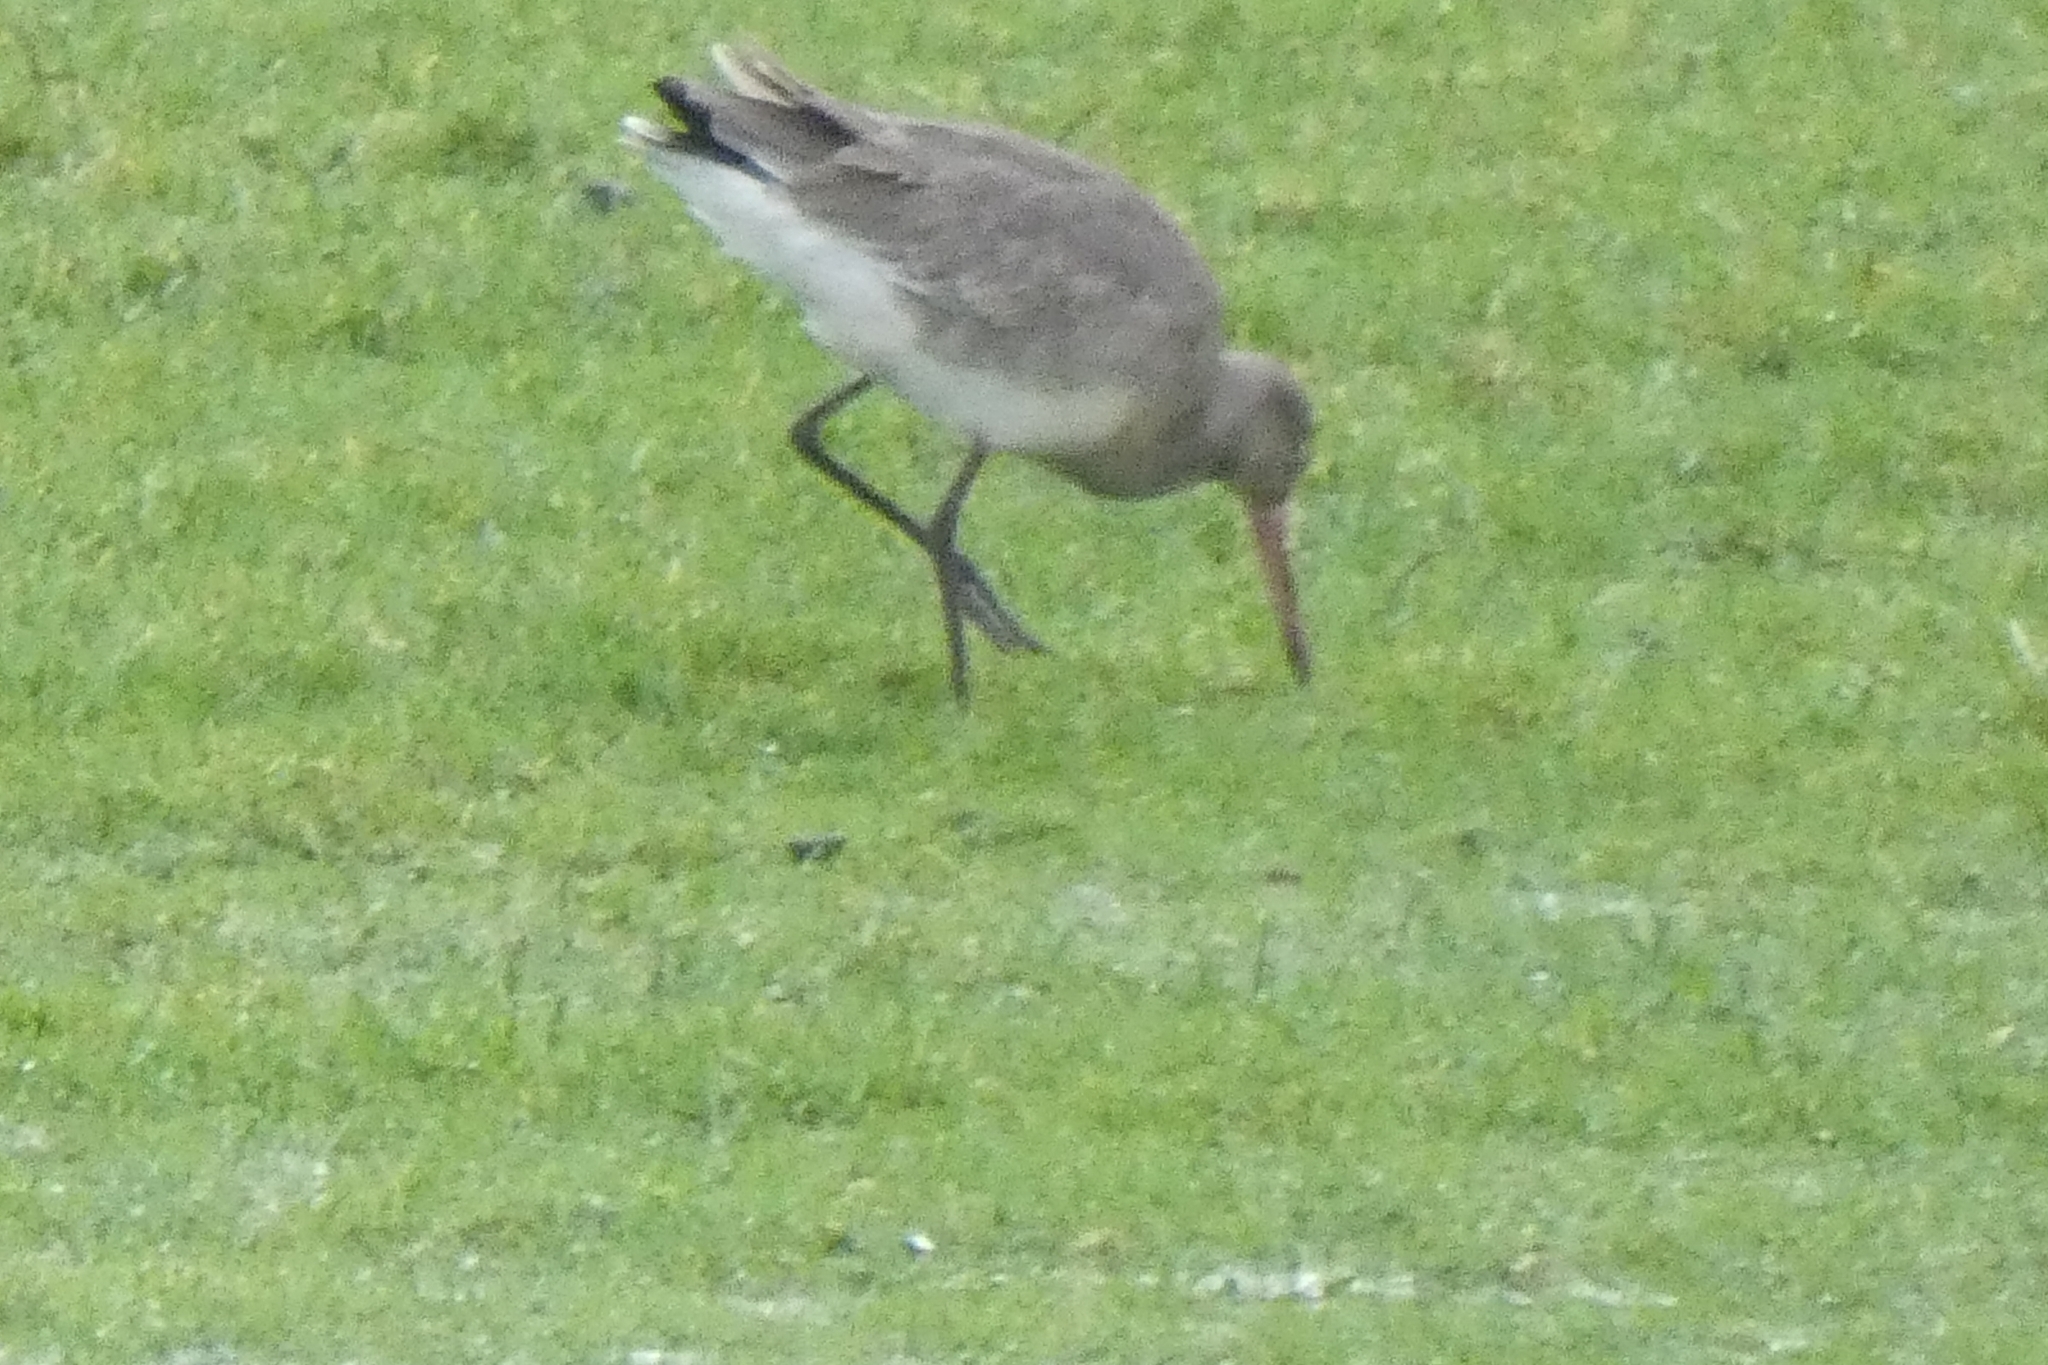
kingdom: Animalia
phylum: Chordata
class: Aves
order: Charadriiformes
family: Scolopacidae
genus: Limosa
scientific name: Limosa limosa
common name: Black-tailed godwit
